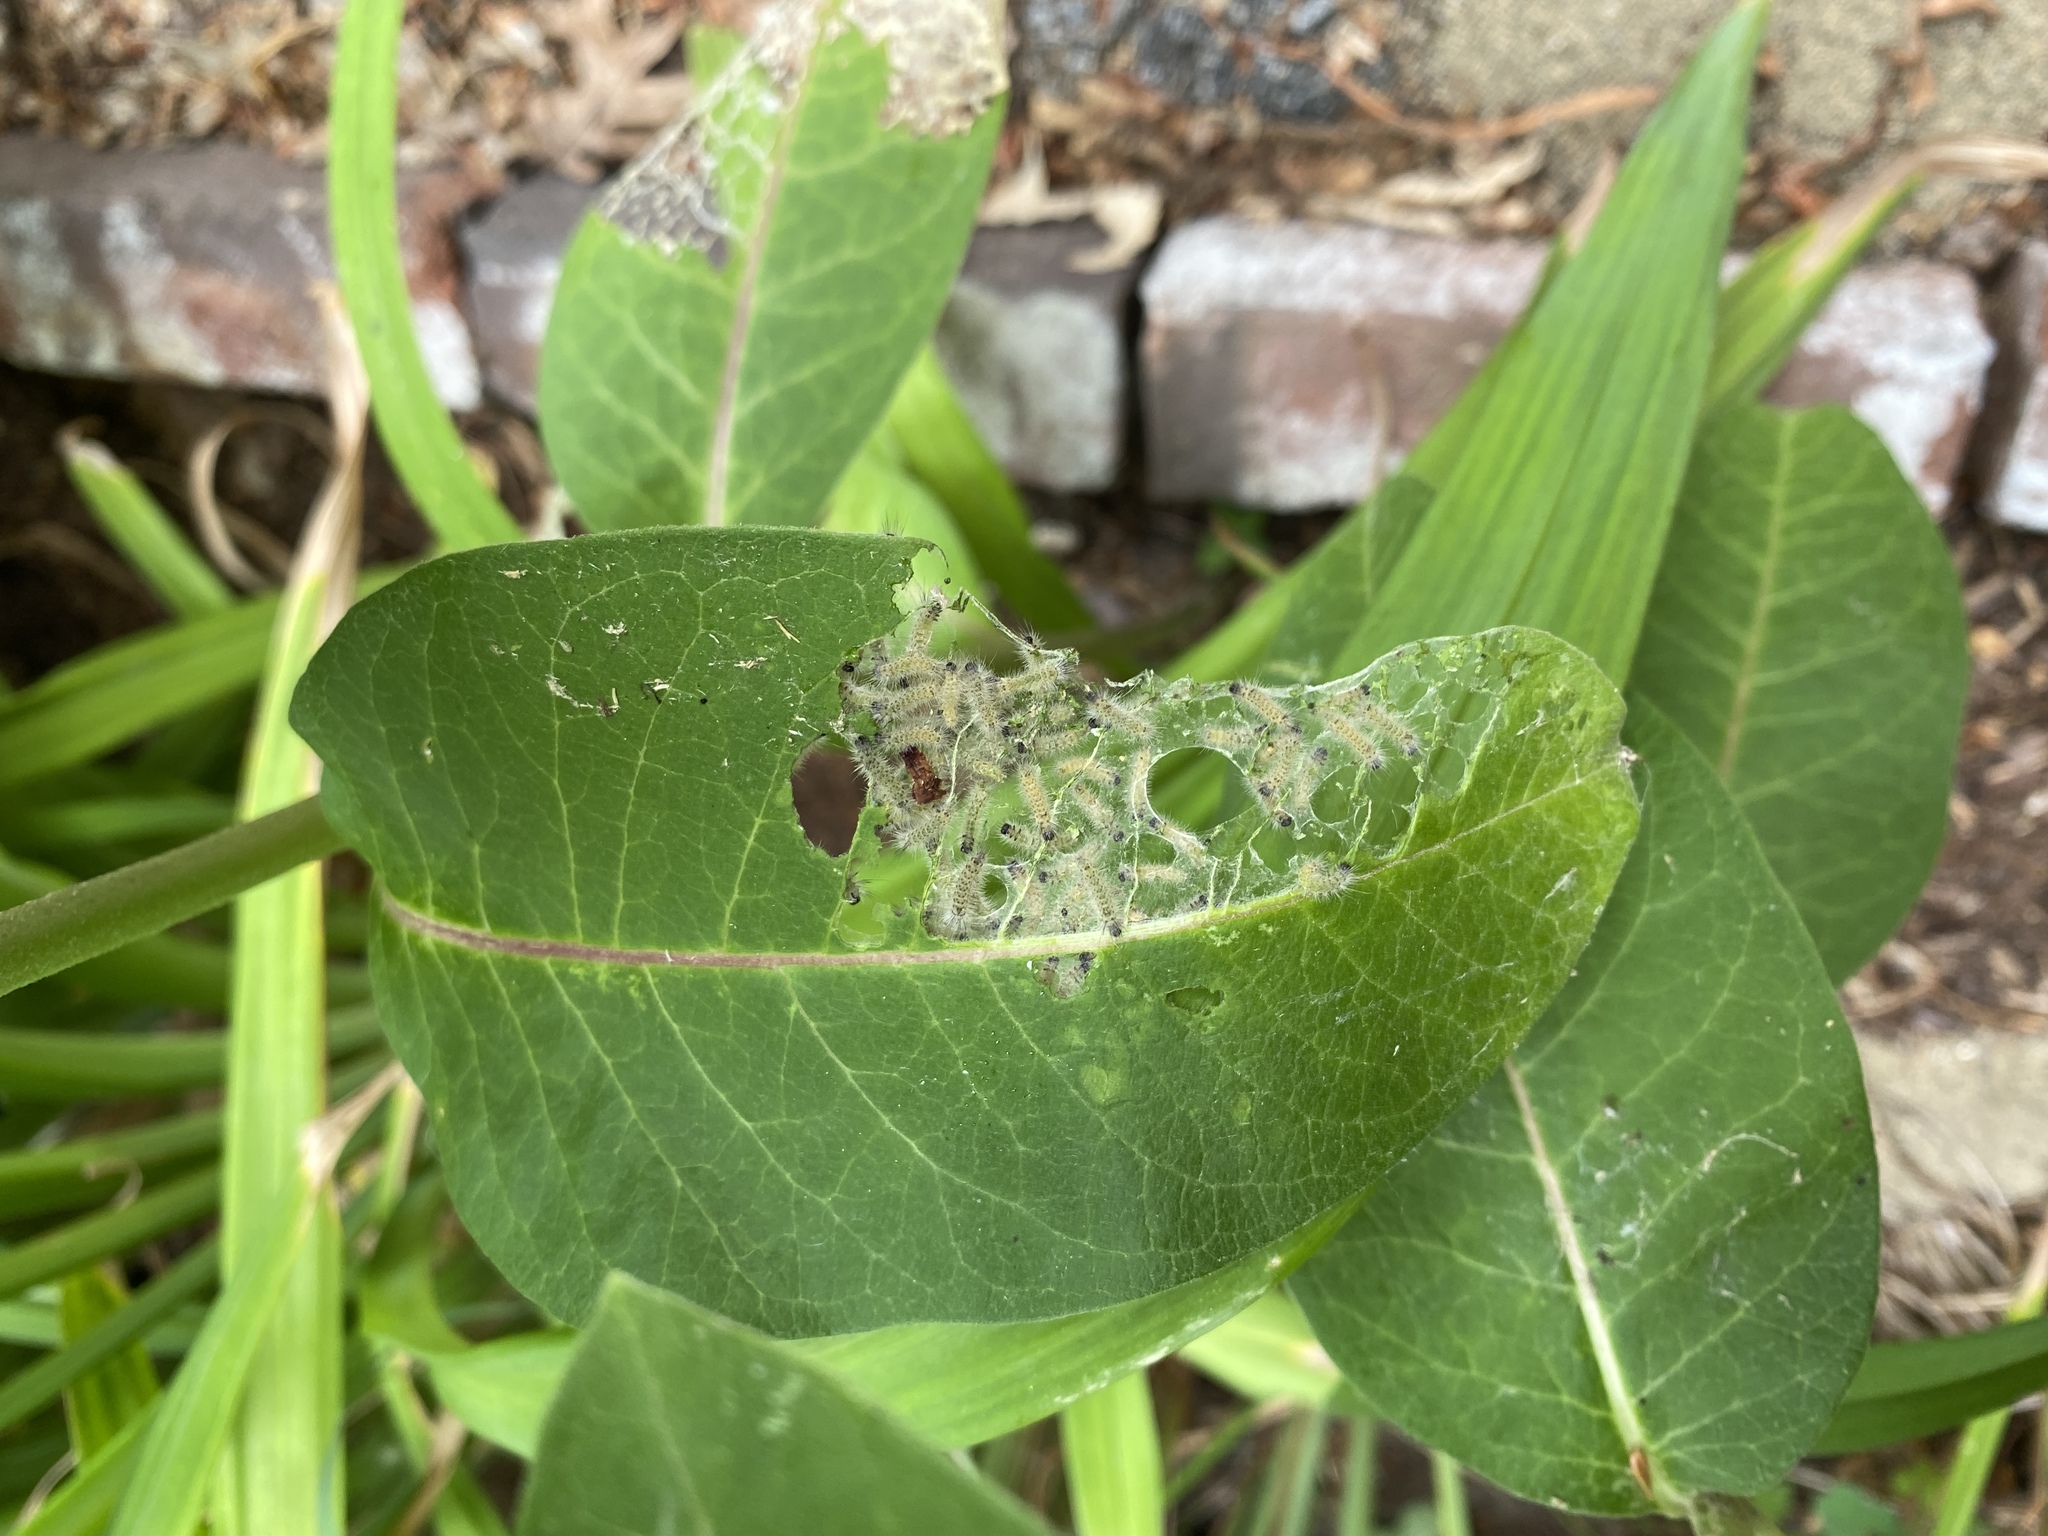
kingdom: Animalia
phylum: Arthropoda
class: Insecta
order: Lepidoptera
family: Erebidae
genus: Euchaetes
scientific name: Euchaetes egle
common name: Milkweed tussock moth
